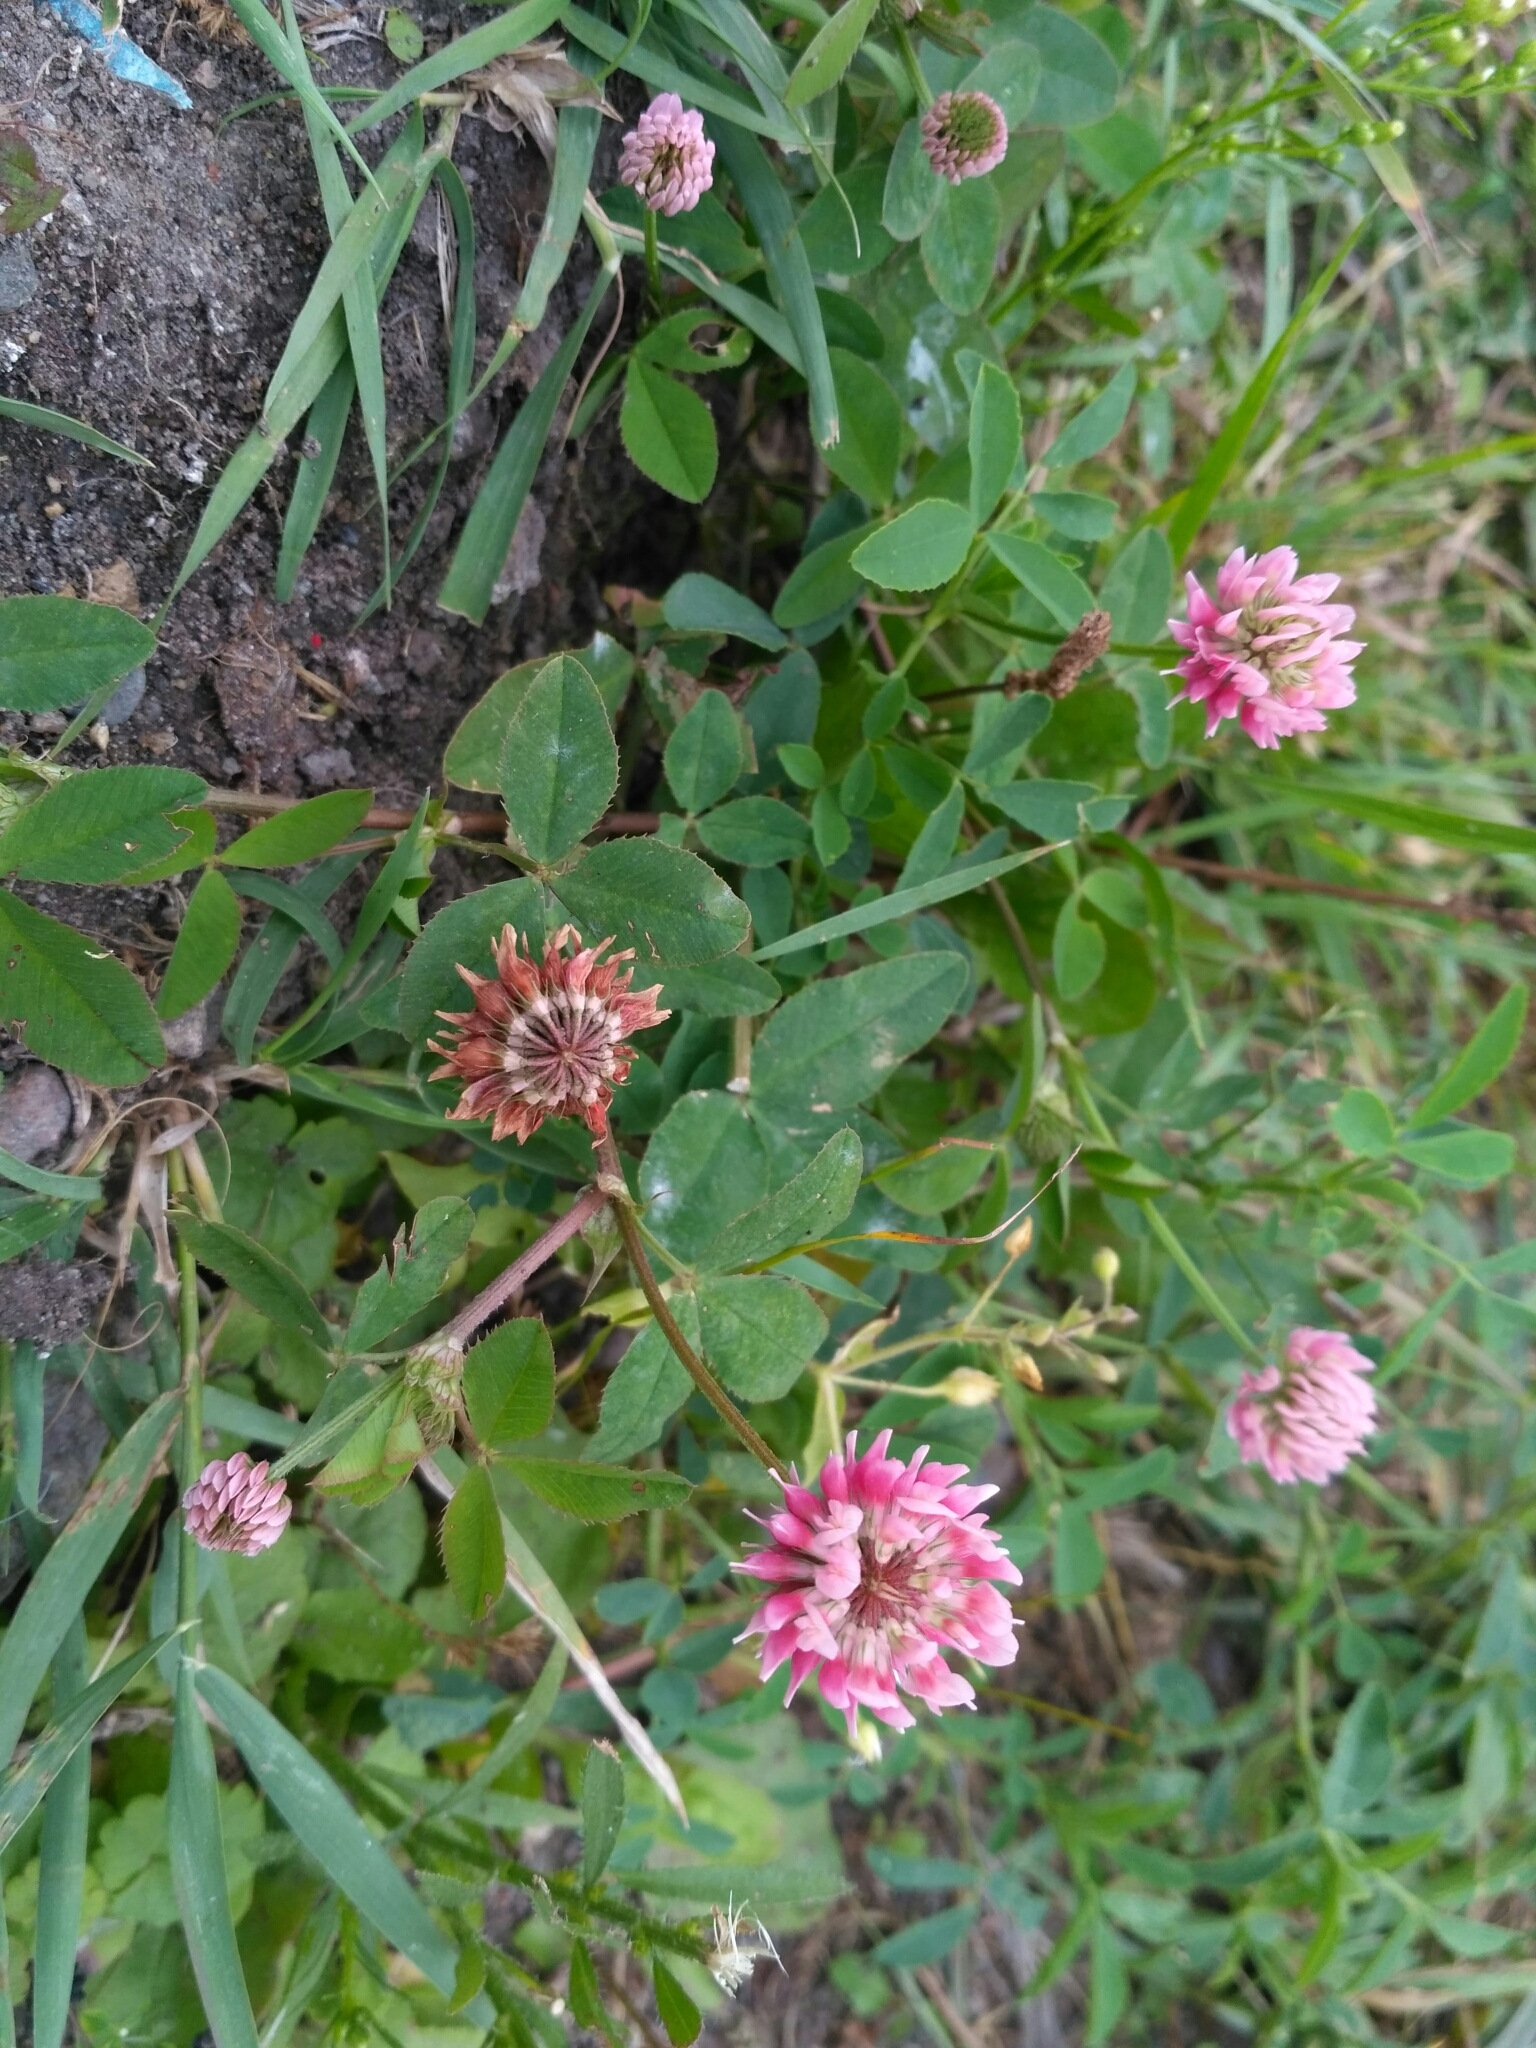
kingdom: Plantae
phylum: Tracheophyta
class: Magnoliopsida
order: Fabales
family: Fabaceae
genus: Trifolium
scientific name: Trifolium hybridum
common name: Alsike clover
